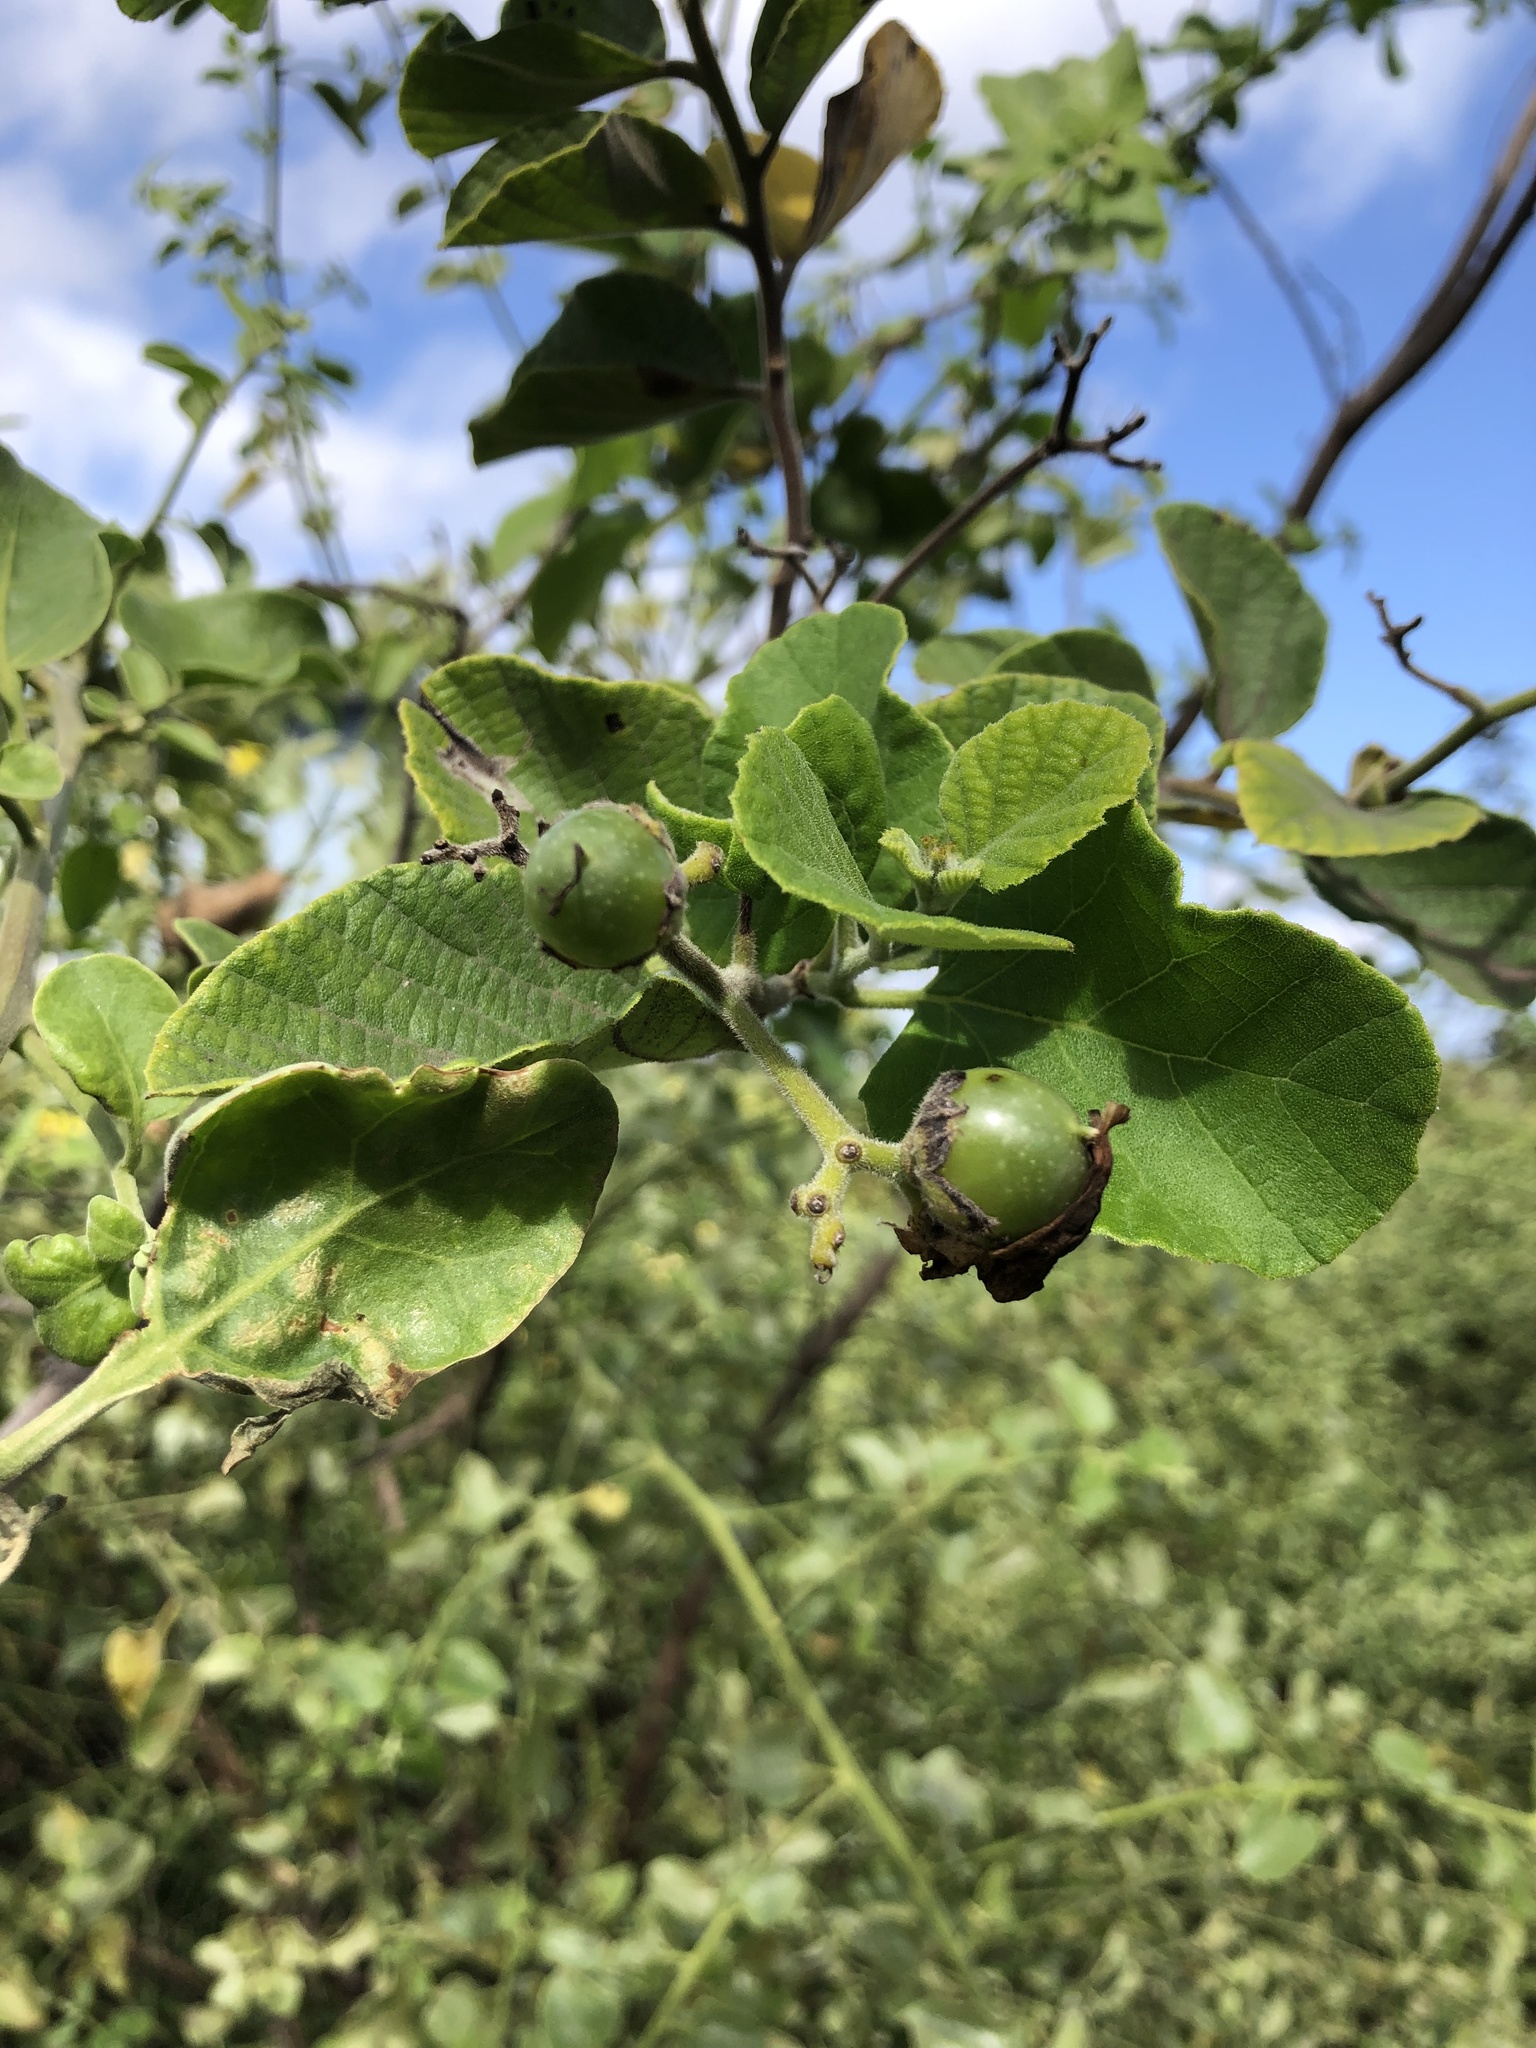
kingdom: Plantae
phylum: Tracheophyta
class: Magnoliopsida
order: Boraginales
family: Cordiaceae
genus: Cordia
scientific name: Cordia lutea
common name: Yellow geiger
